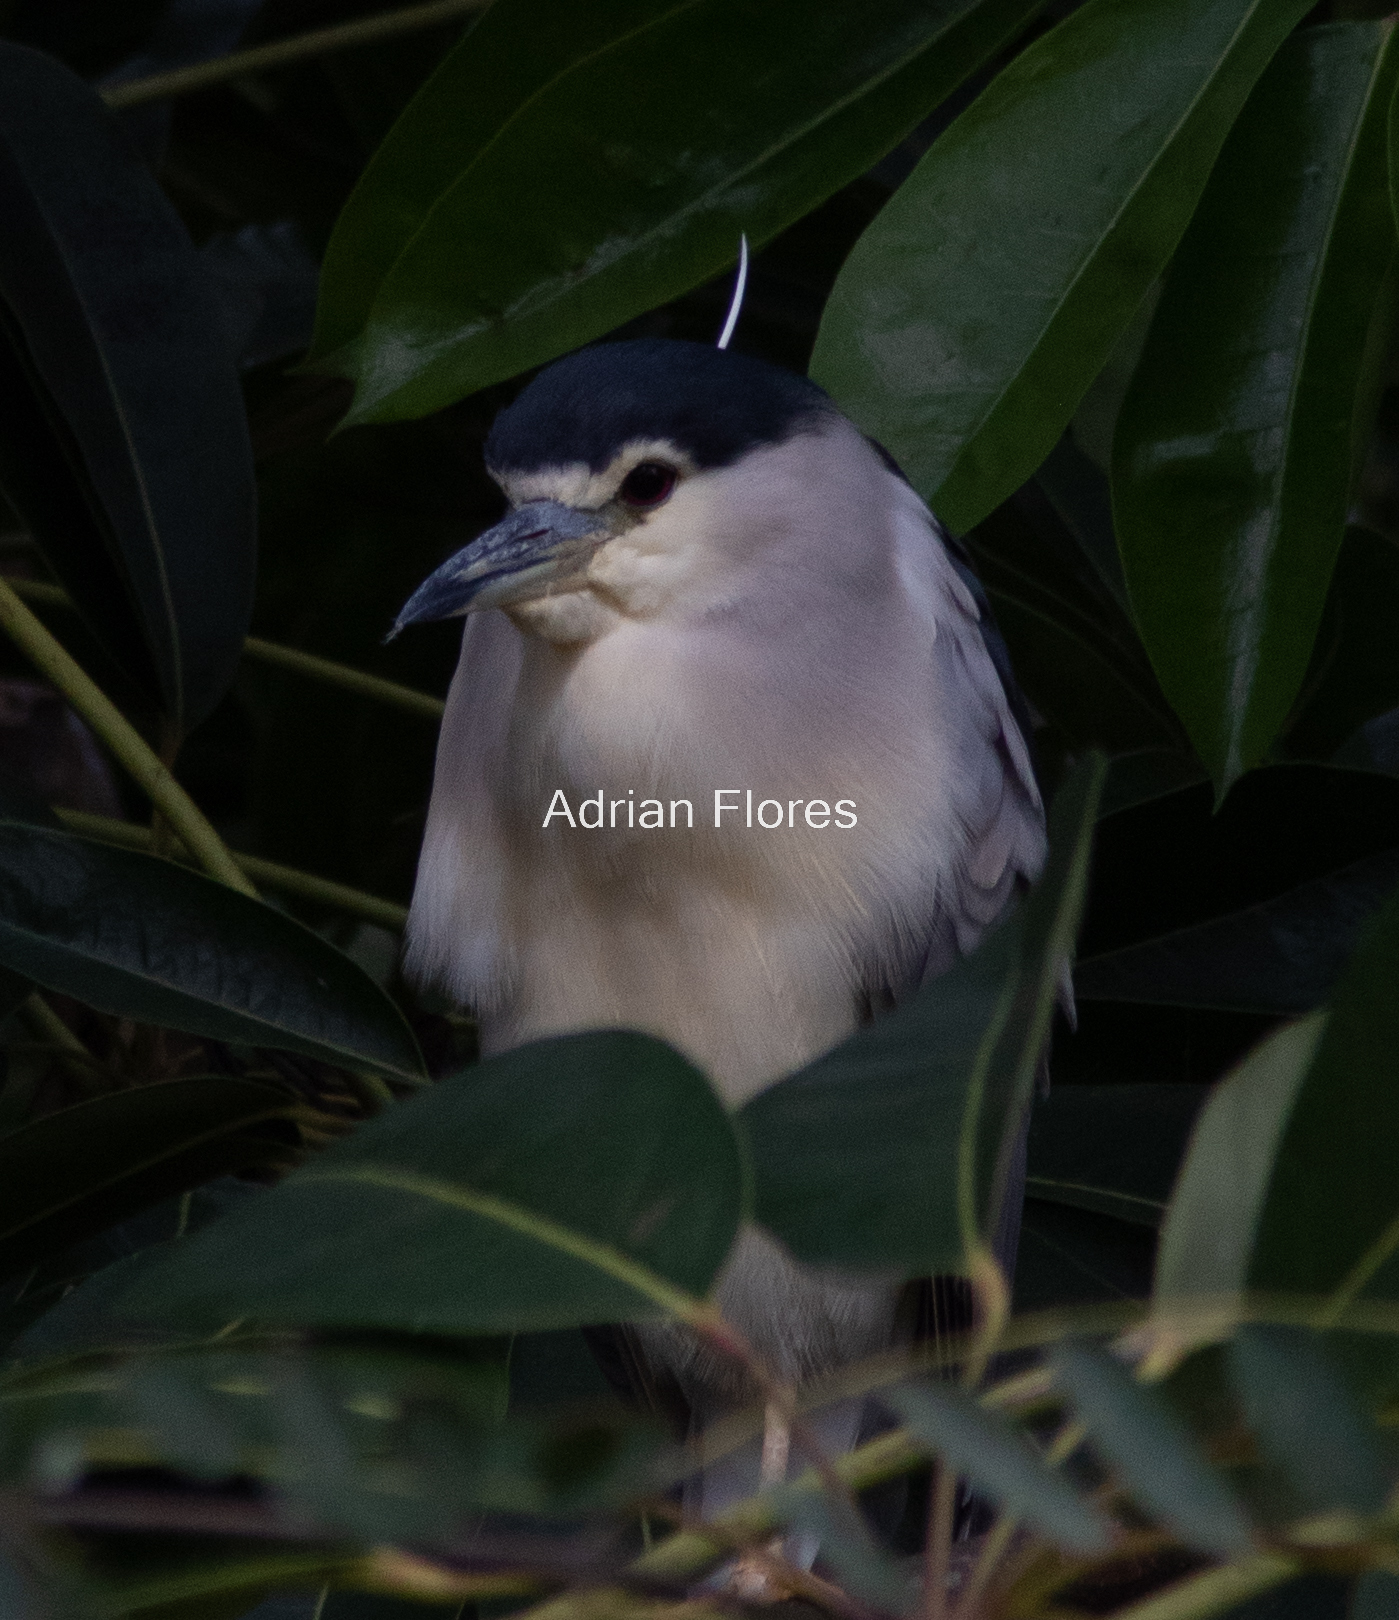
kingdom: Animalia
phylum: Chordata
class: Aves
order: Pelecaniformes
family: Ardeidae
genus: Nycticorax
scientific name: Nycticorax nycticorax
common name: Black-crowned night heron
